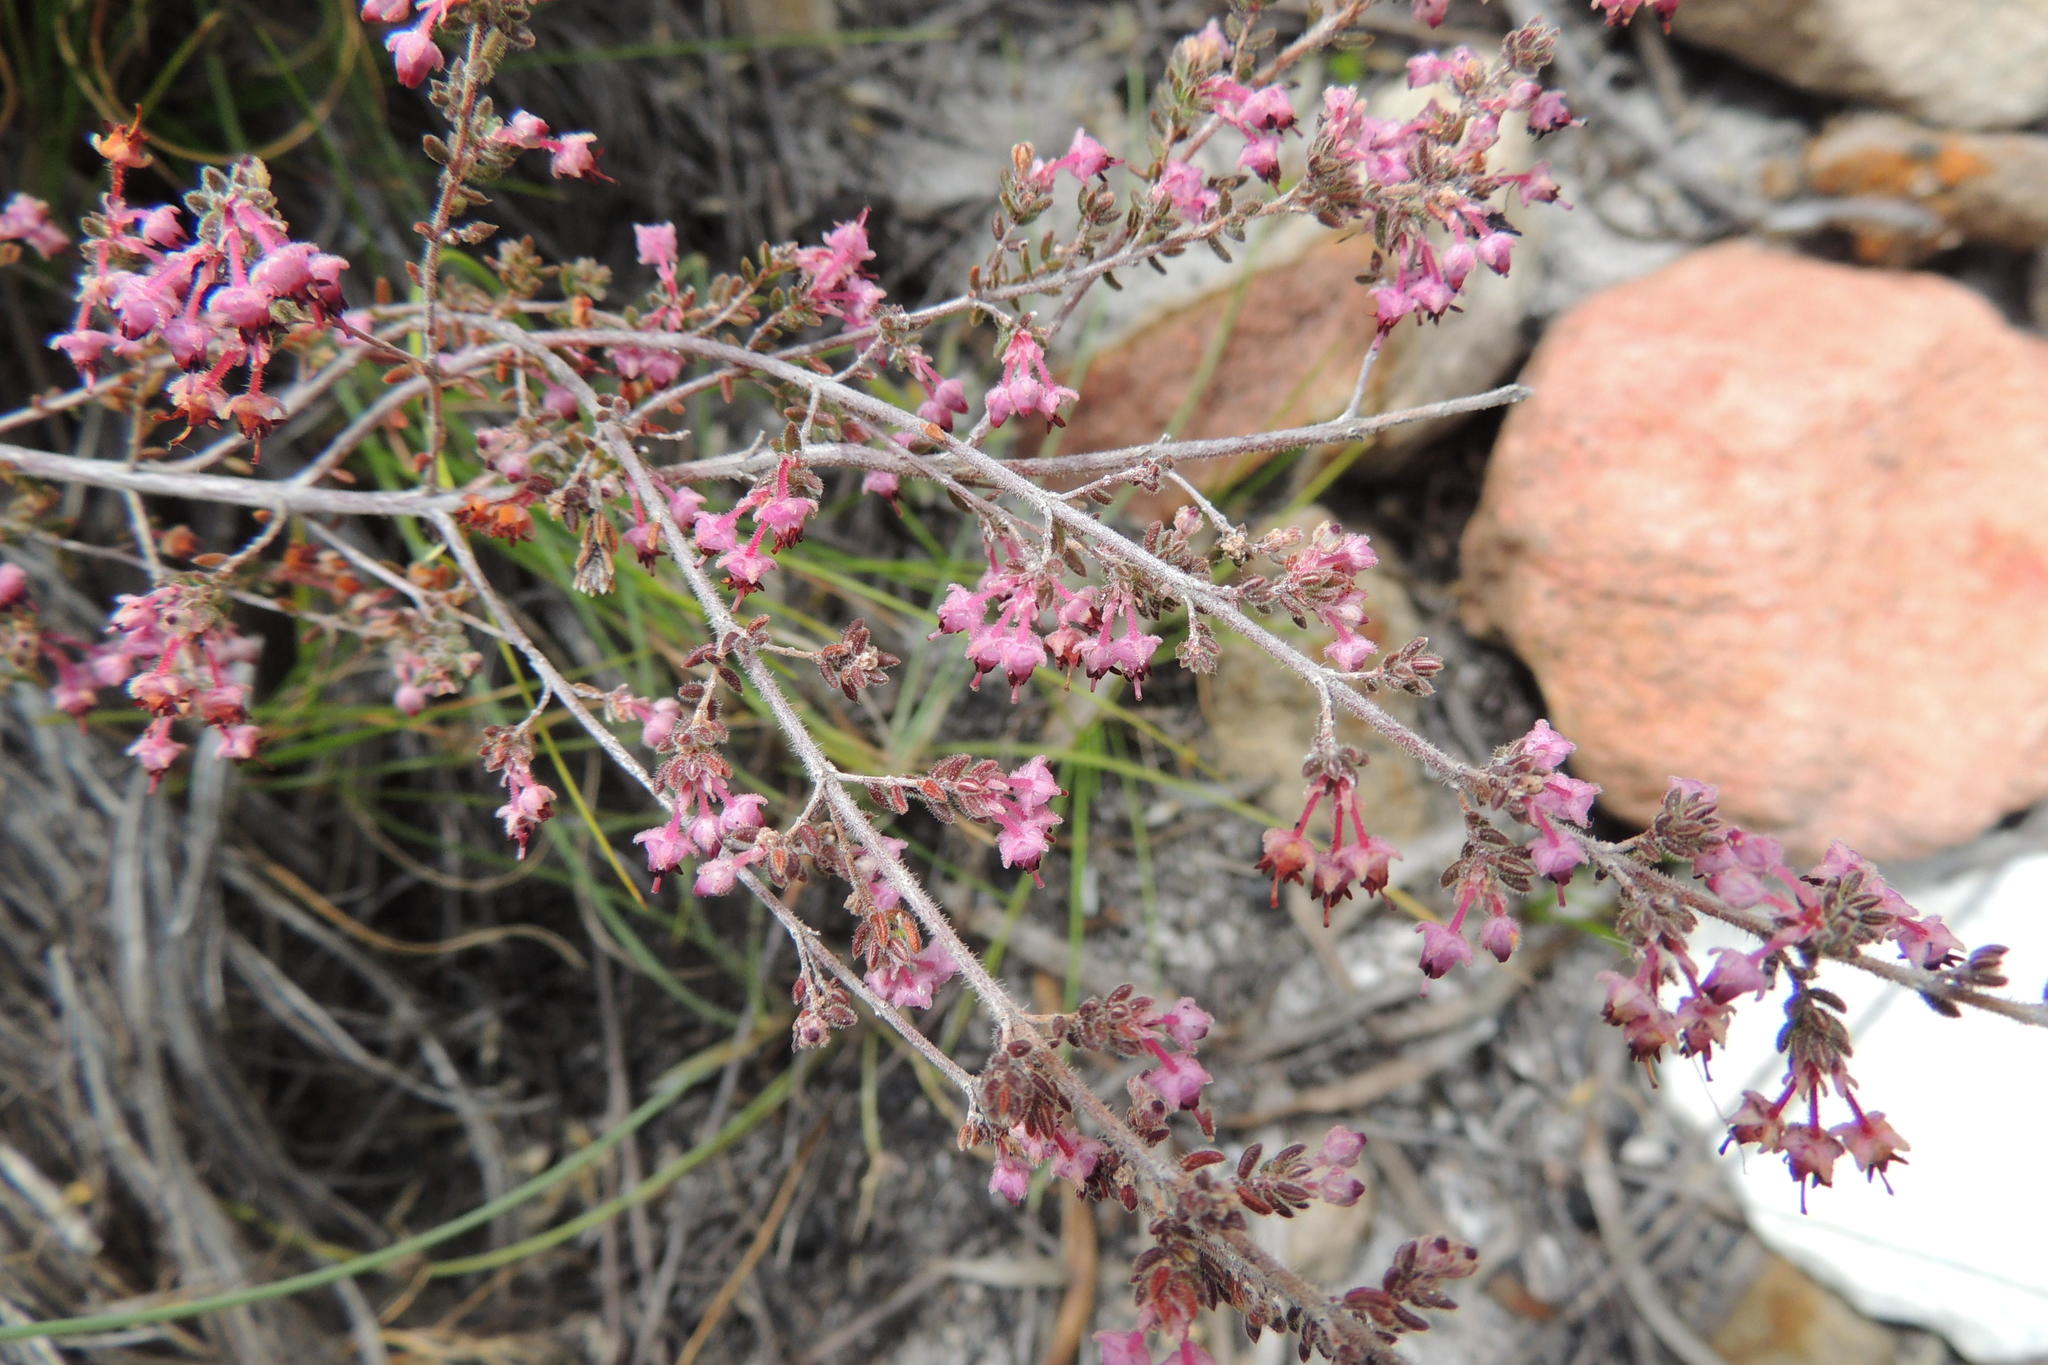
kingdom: Plantae
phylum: Tracheophyta
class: Magnoliopsida
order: Ericales
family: Ericaceae
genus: Erica
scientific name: Erica atropurpurea
